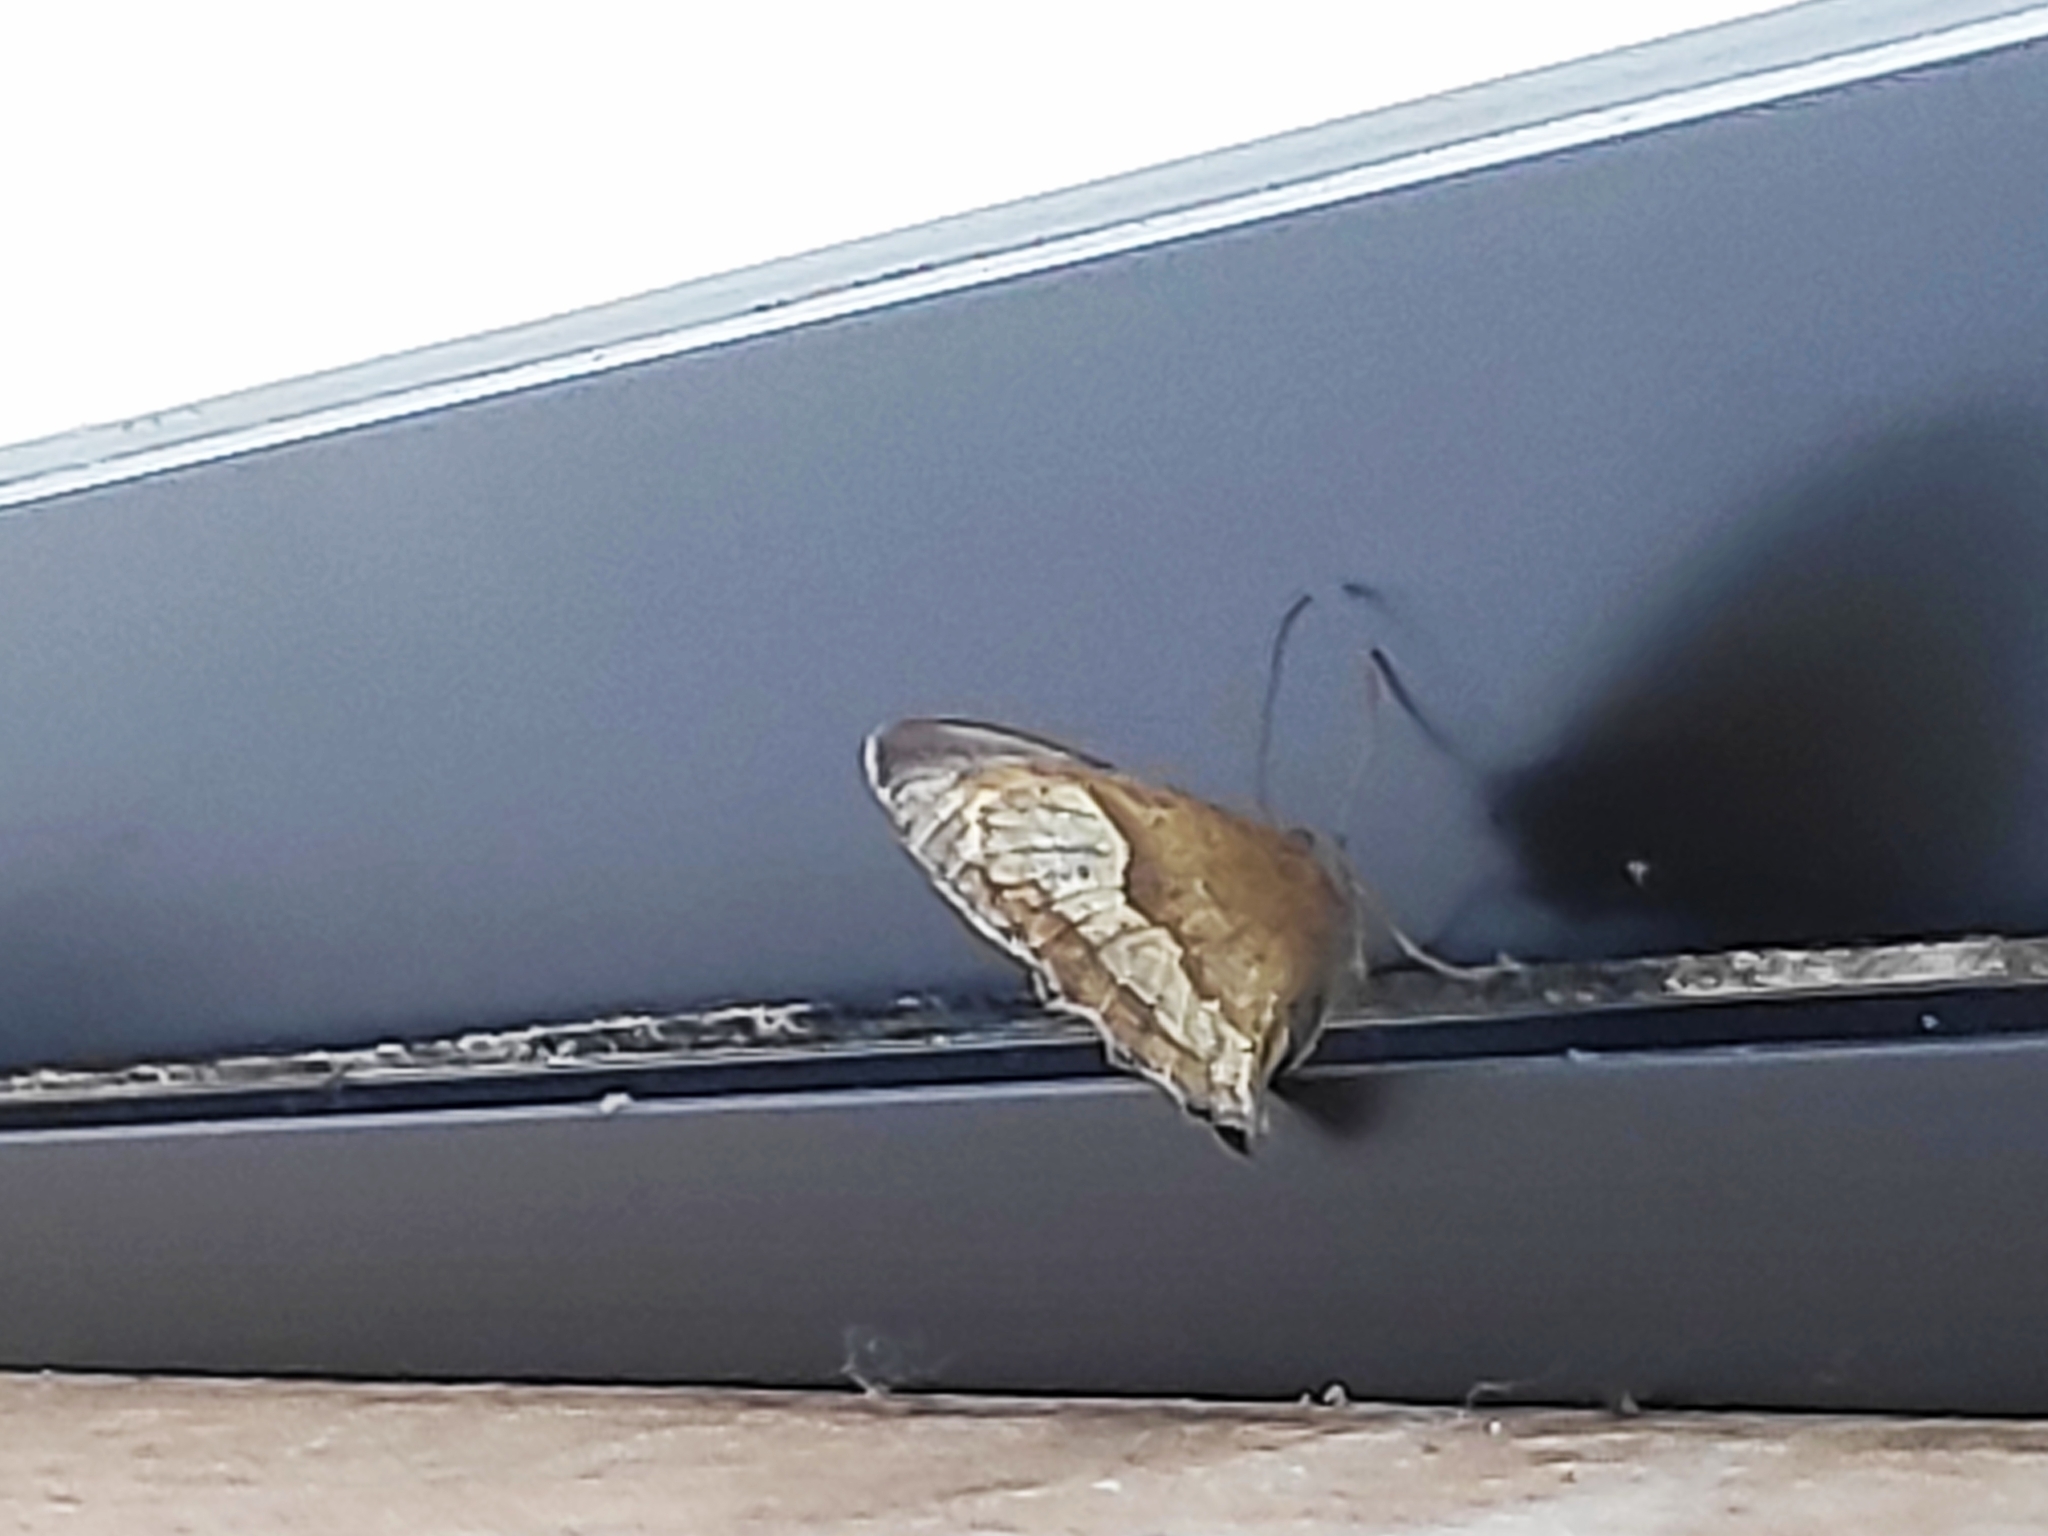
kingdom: Animalia
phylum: Arthropoda
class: Insecta
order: Lepidoptera
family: Nymphalidae
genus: Maniola
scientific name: Maniola jurtina
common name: Meadow brown
